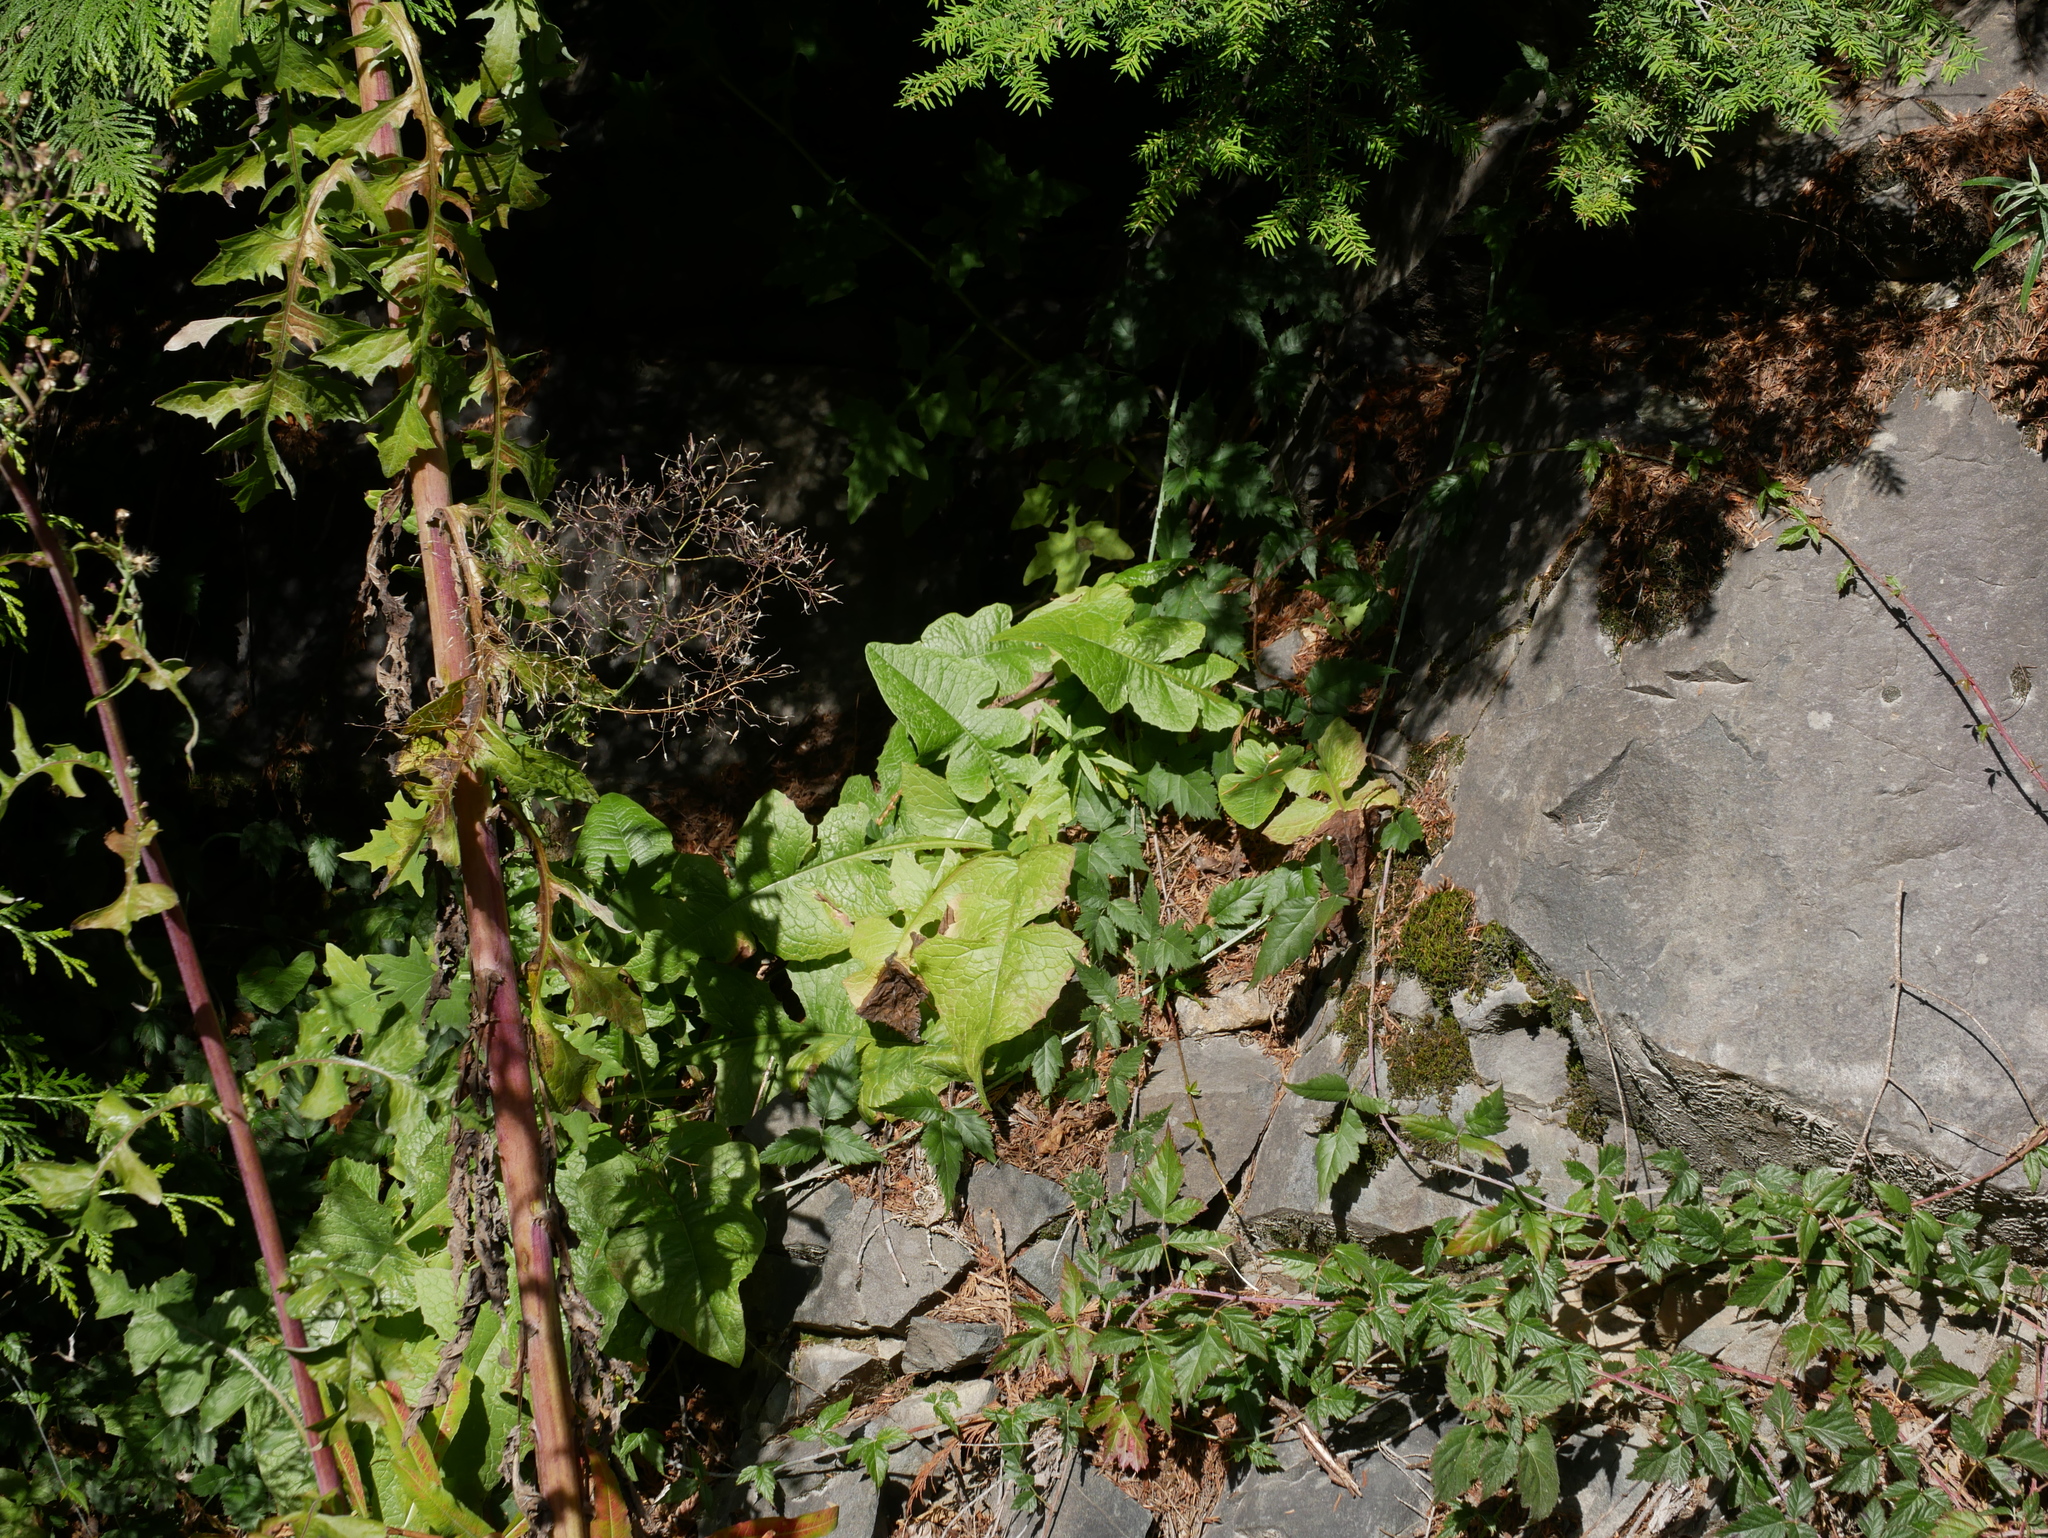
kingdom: Plantae
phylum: Tracheophyta
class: Magnoliopsida
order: Asterales
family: Asteraceae
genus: Lactuca
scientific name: Lactuca biennis
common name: Blue wood lettuce
